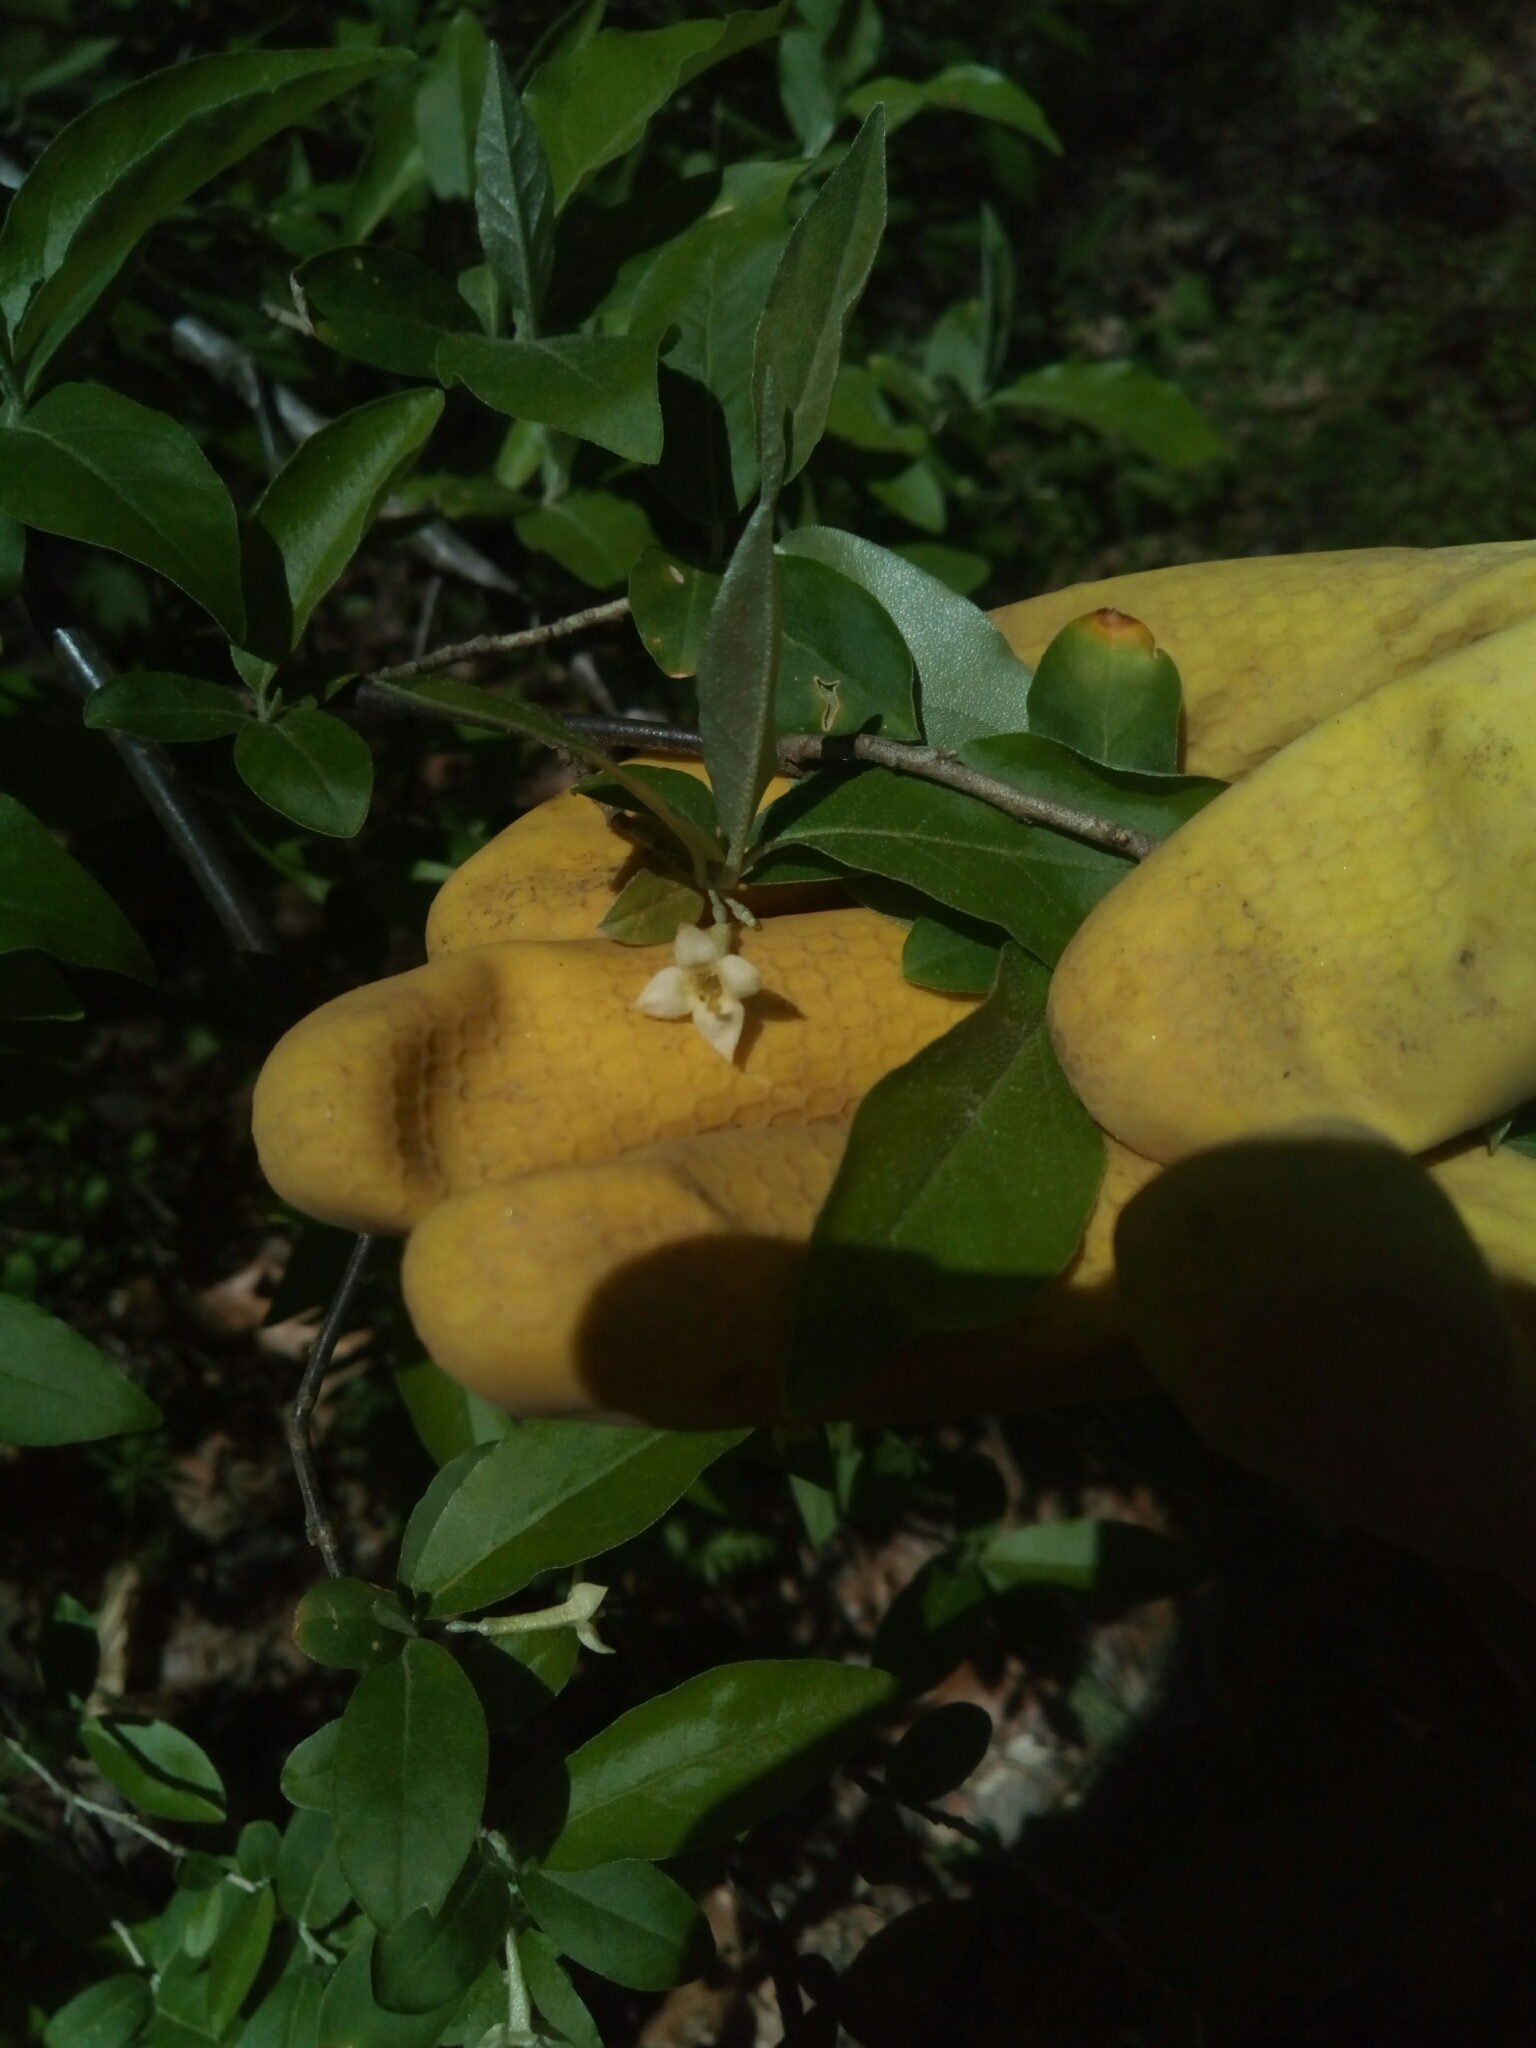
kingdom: Plantae
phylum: Tracheophyta
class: Magnoliopsida
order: Rosales
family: Elaeagnaceae
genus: Elaeagnus
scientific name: Elaeagnus umbellata
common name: Autumn olive
